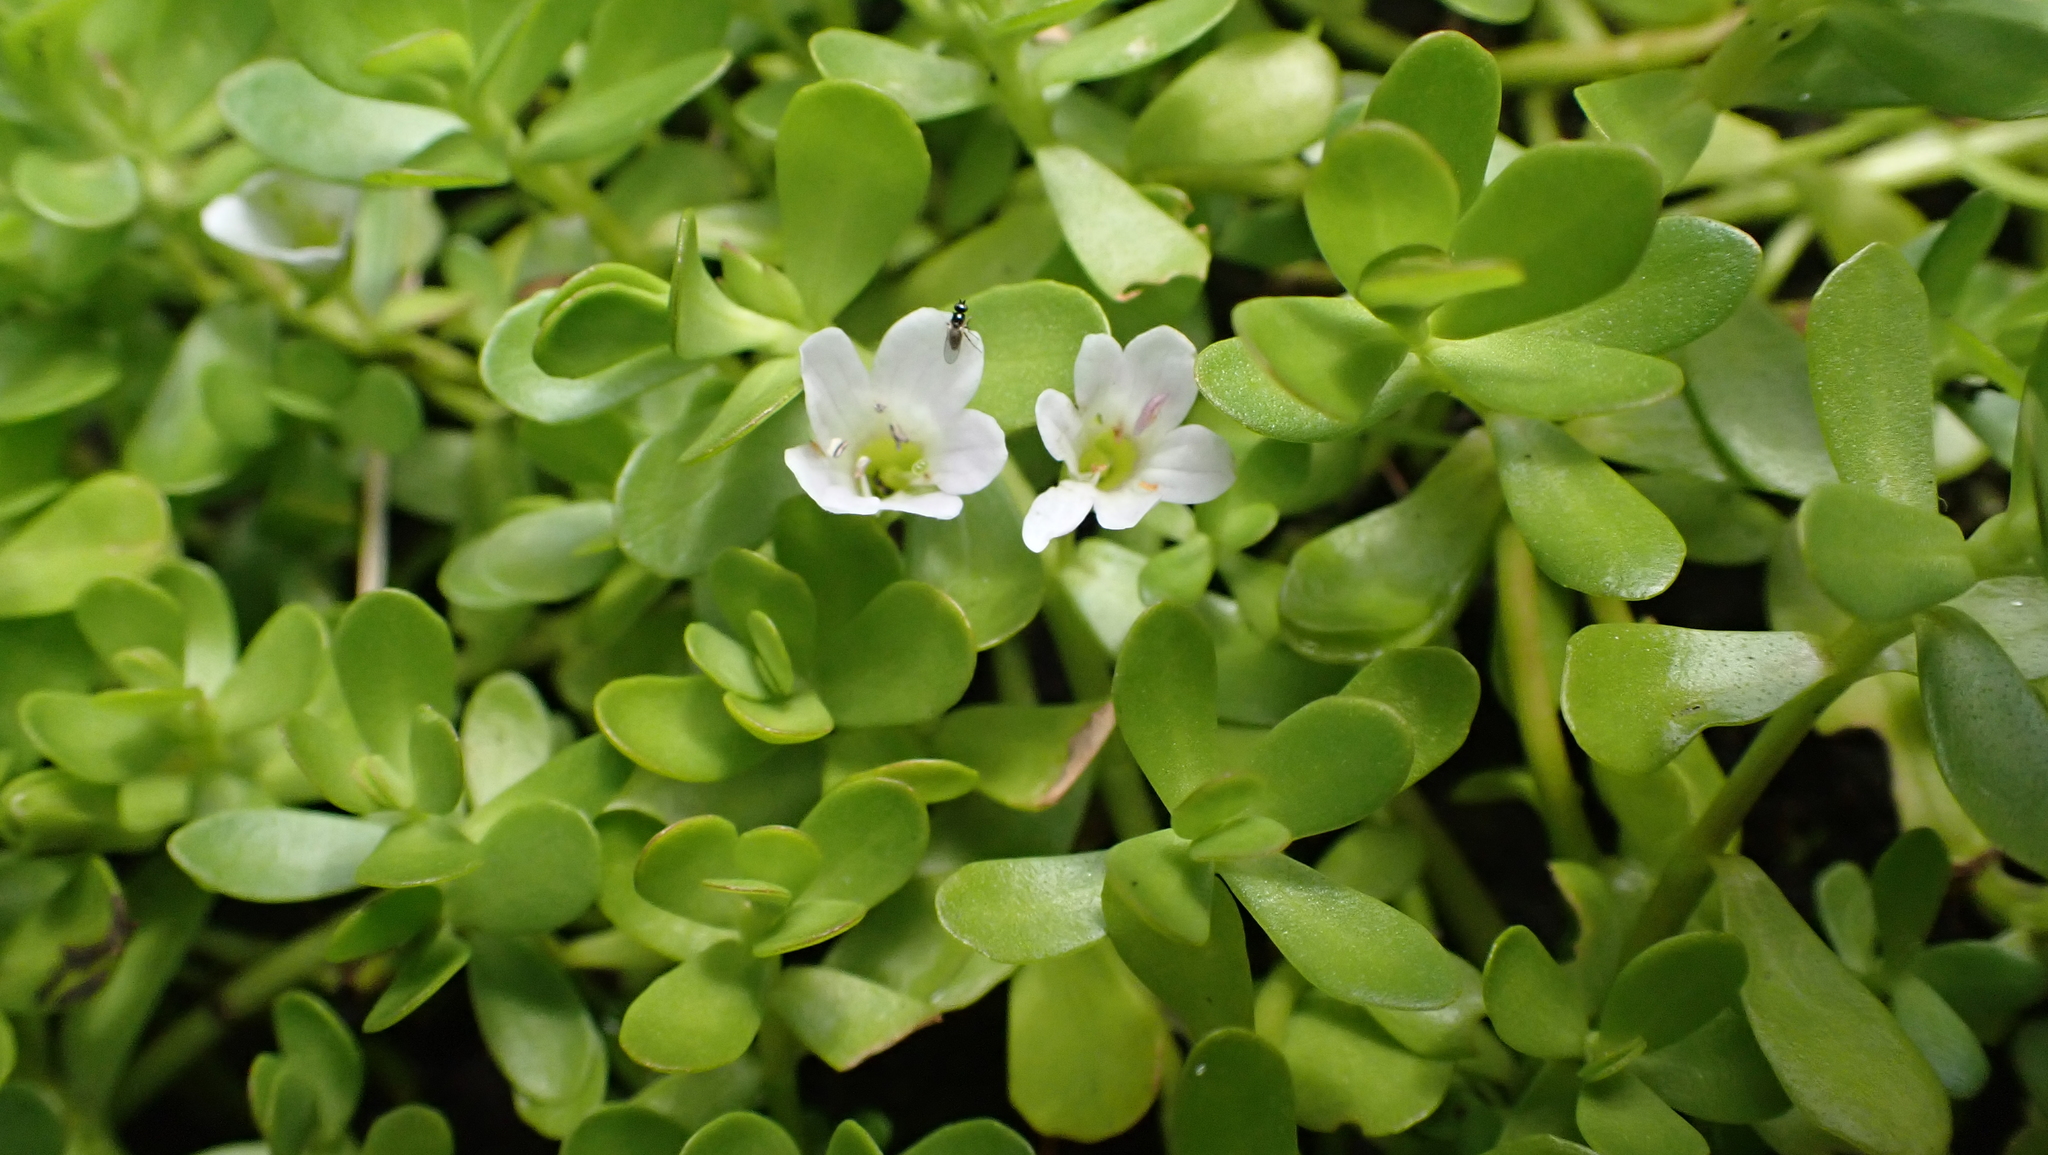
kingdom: Plantae
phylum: Tracheophyta
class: Magnoliopsida
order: Lamiales
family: Plantaginaceae
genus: Bacopa
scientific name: Bacopa monnieri
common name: Indian-pennywort
